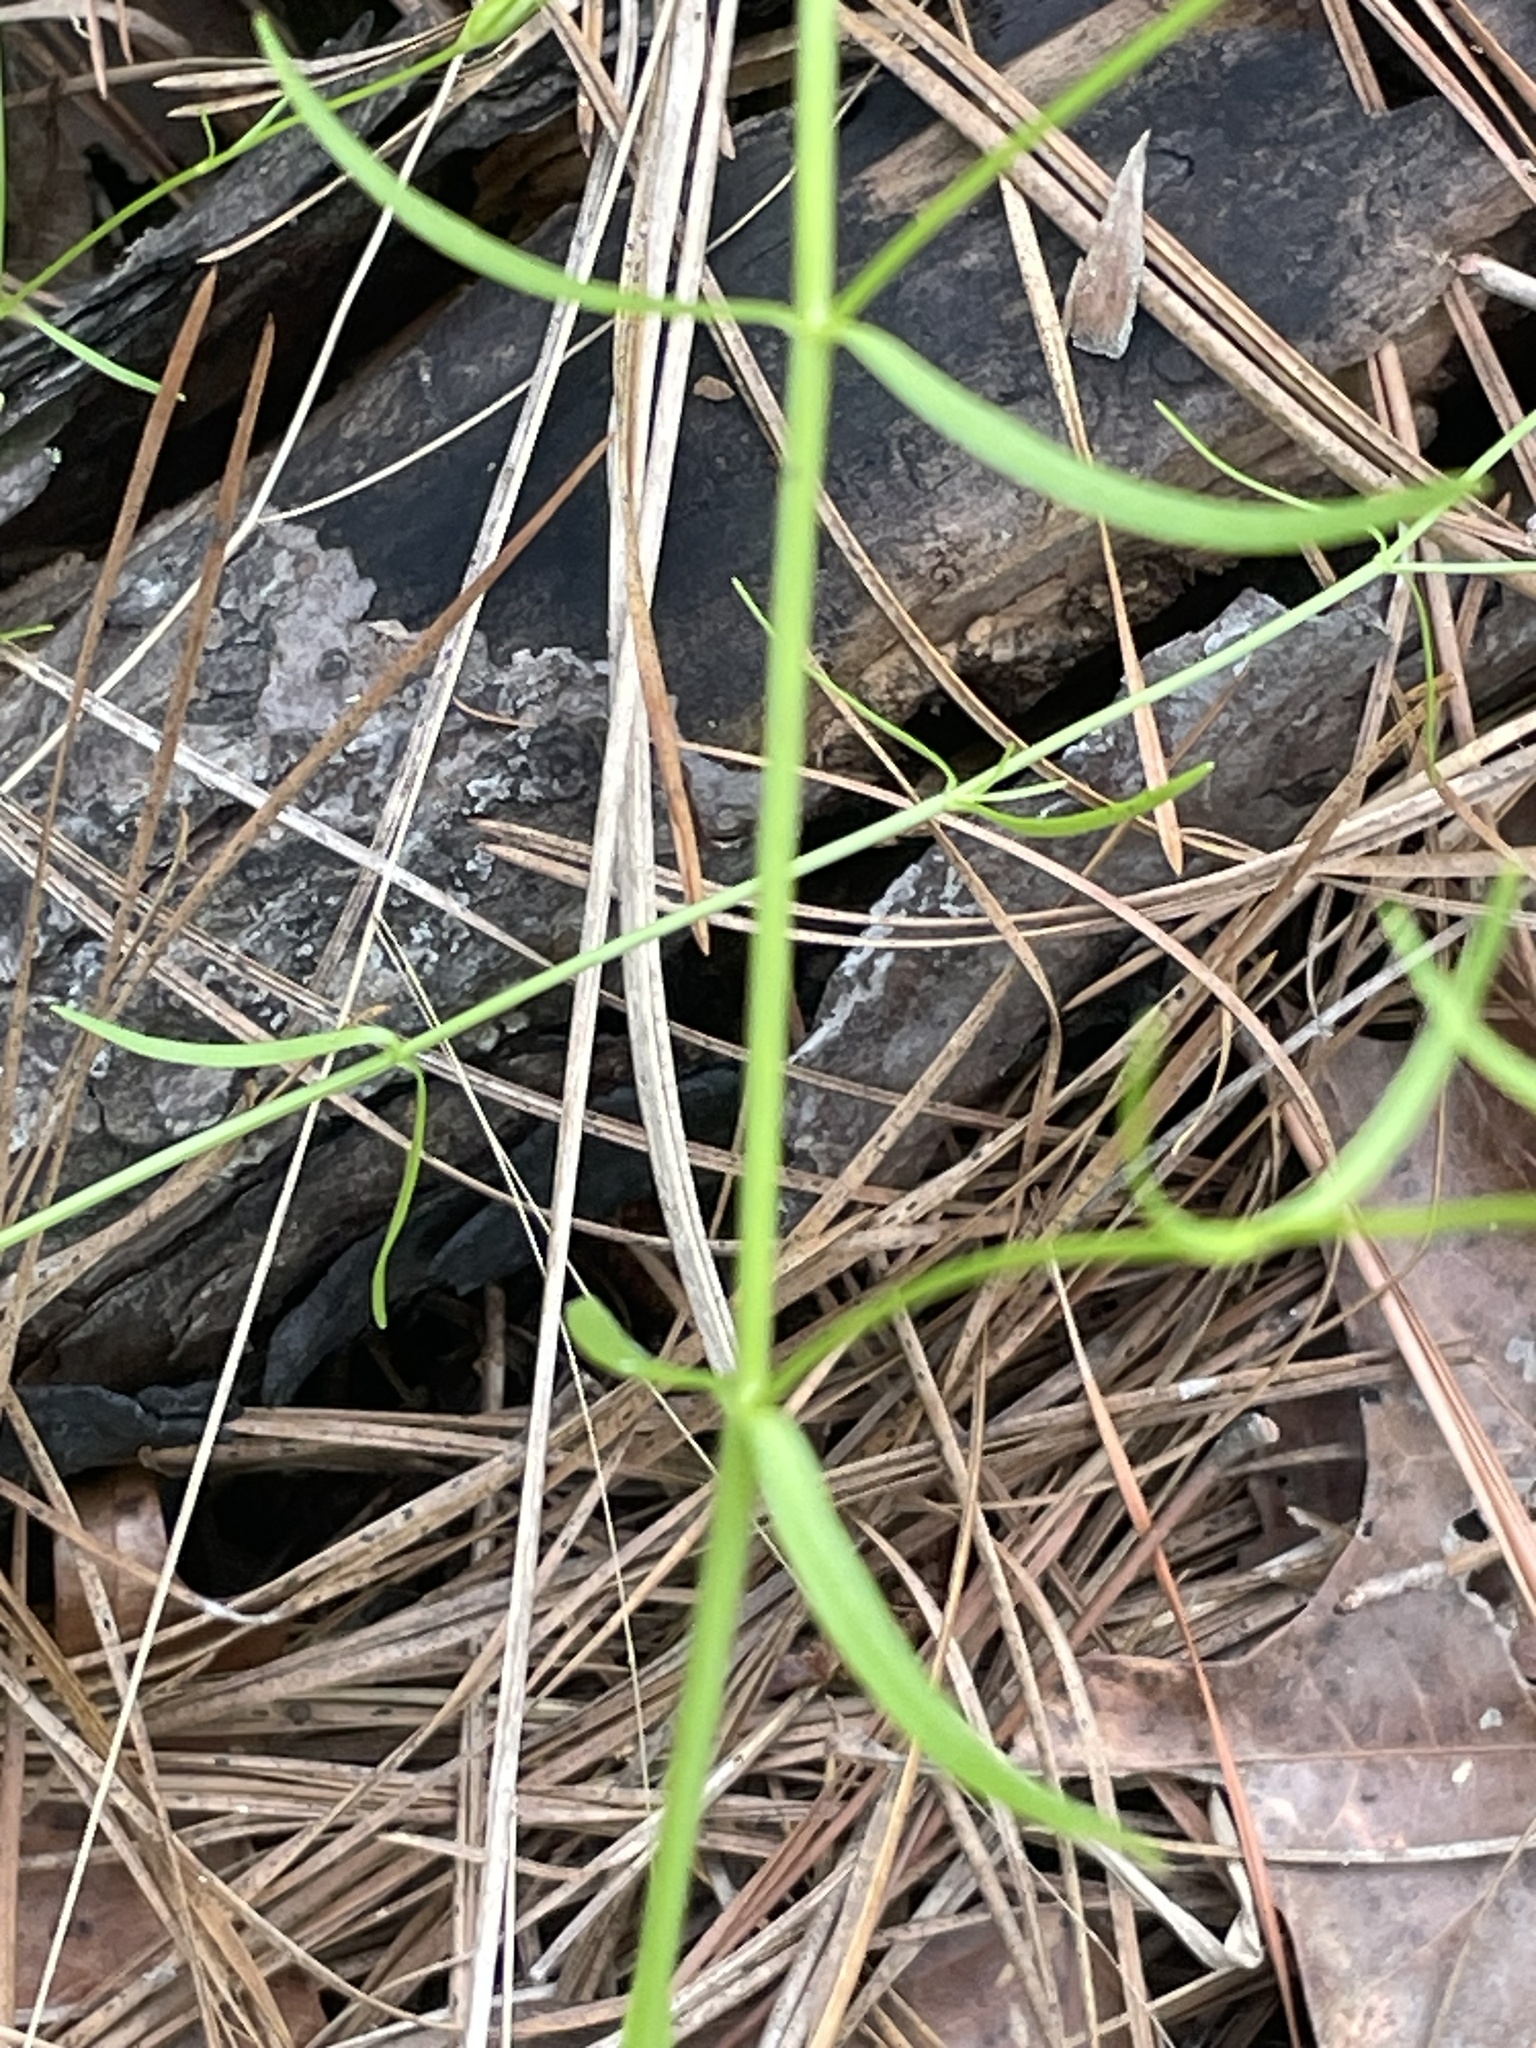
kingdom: Plantae
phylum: Tracheophyta
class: Magnoliopsida
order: Gentianales
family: Gentianaceae
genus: Sabatia
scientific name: Sabatia campanulata
